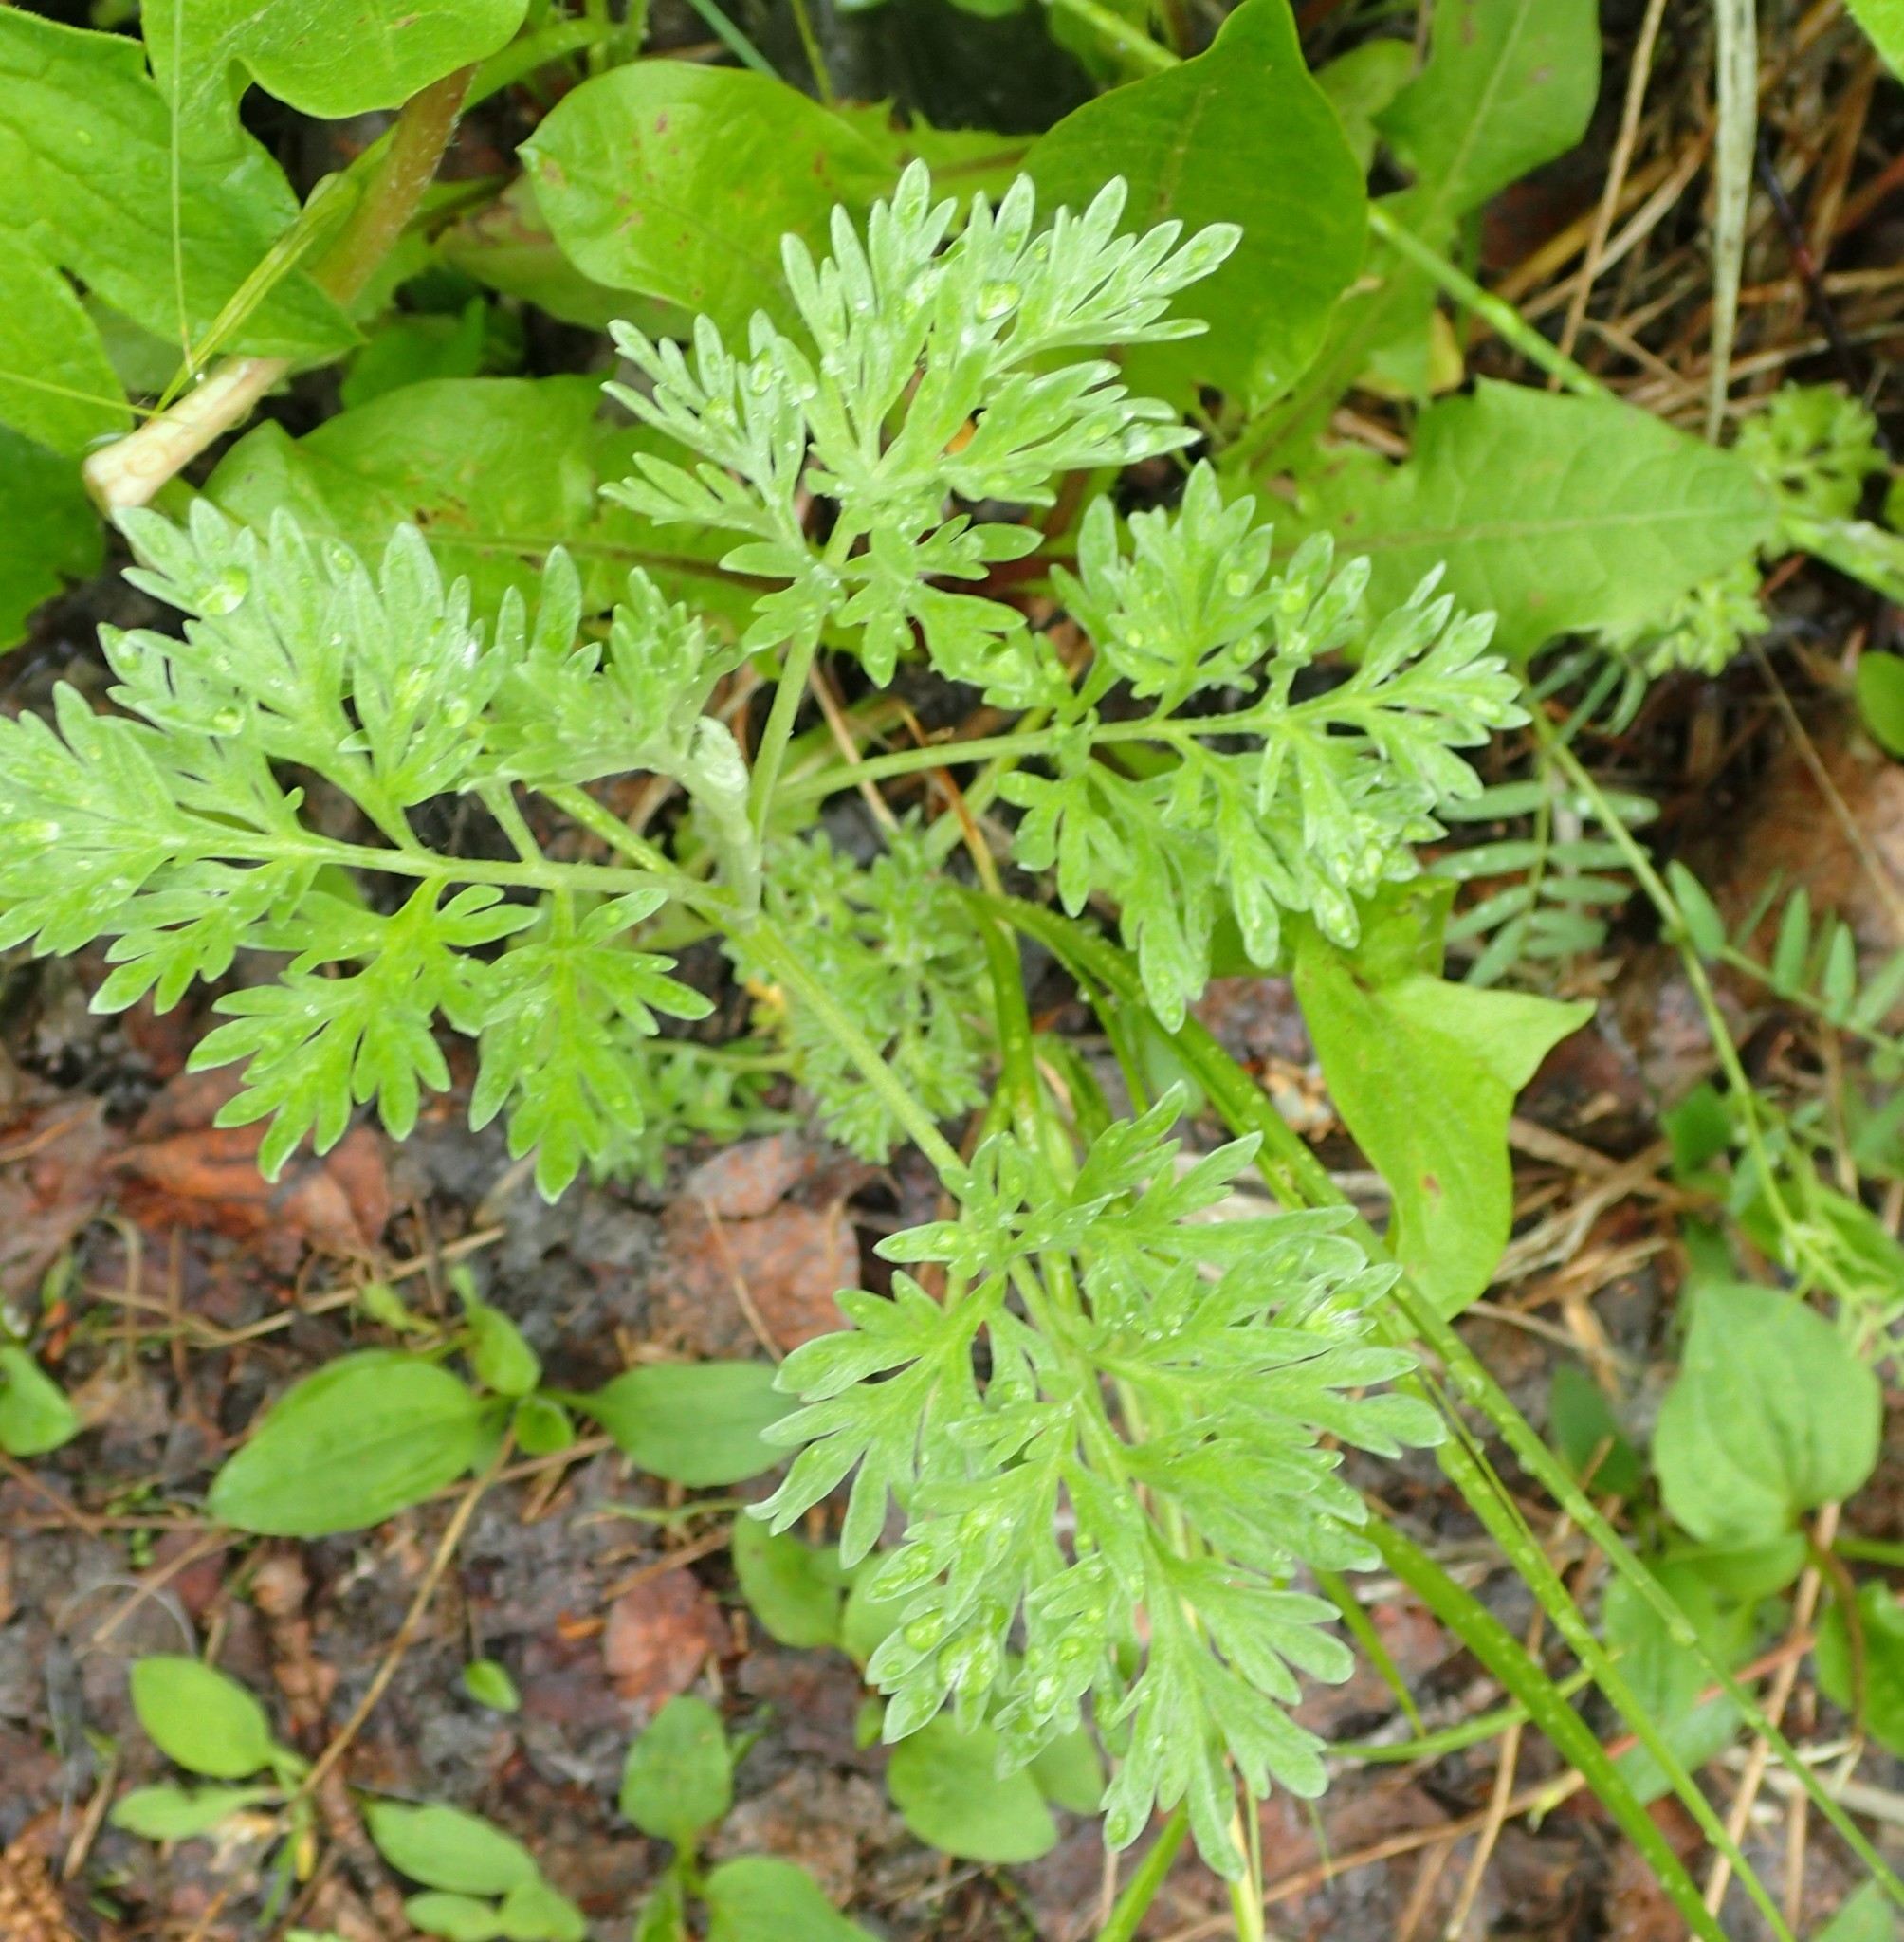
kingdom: Plantae
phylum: Tracheophyta
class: Magnoliopsida
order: Asterales
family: Asteraceae
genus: Artemisia
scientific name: Artemisia absinthium
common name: Wormwood
